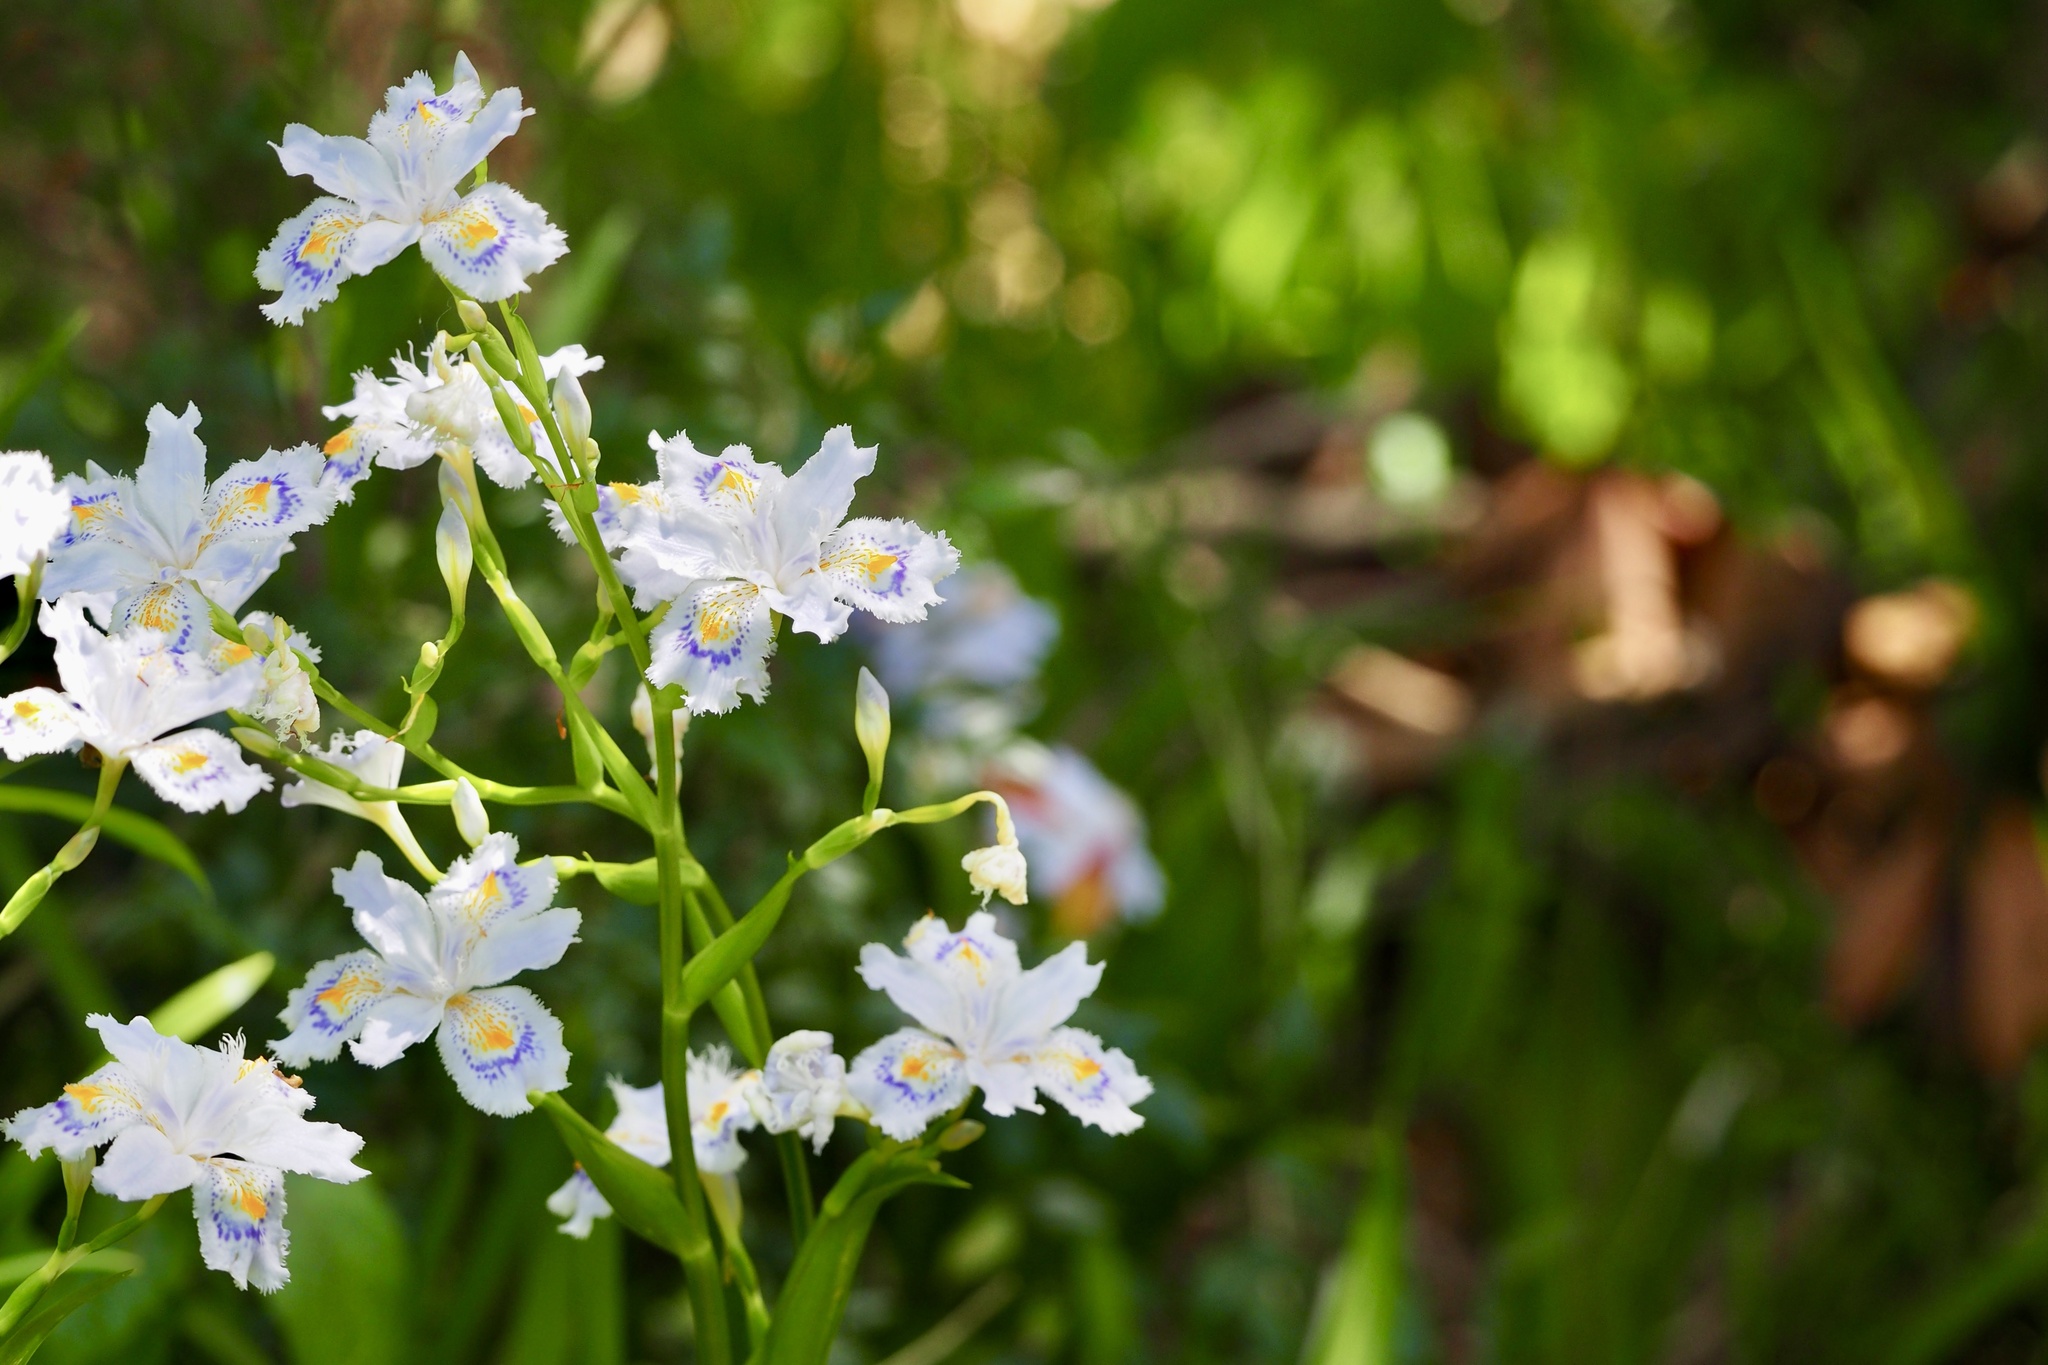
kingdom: Plantae
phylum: Tracheophyta
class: Liliopsida
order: Asparagales
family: Iridaceae
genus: Iris
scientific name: Iris japonica
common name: Butterfly-flower
